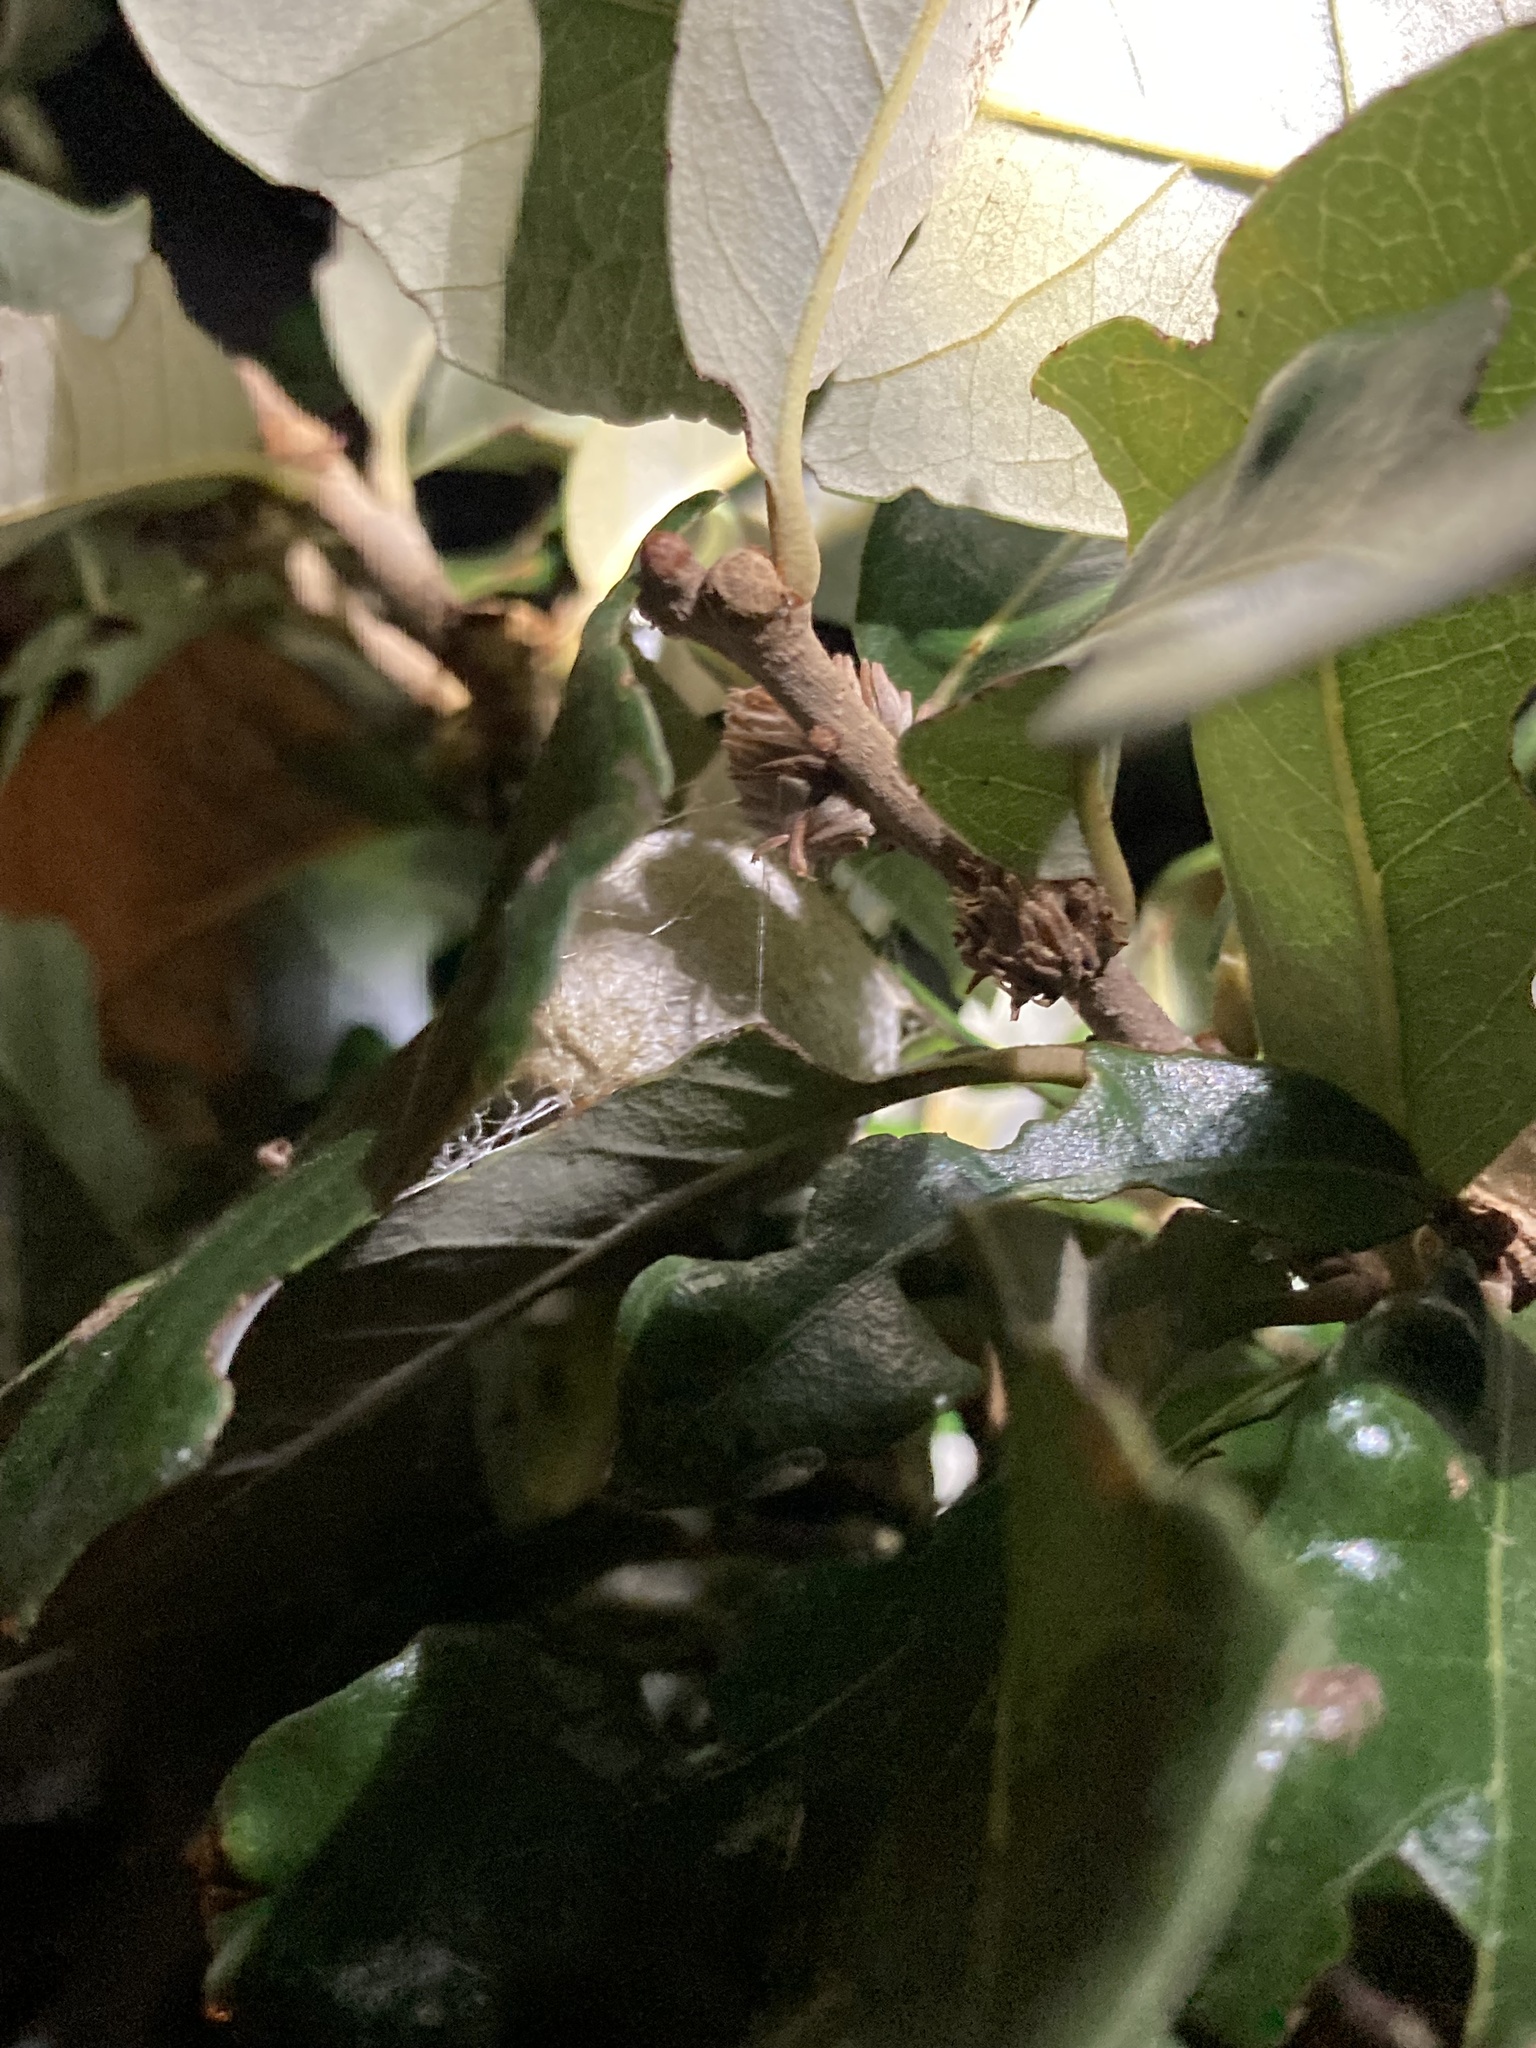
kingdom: Animalia
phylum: Arthropoda
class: Insecta
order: Lepidoptera
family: Saturniidae
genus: Antheraea
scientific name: Antheraea polyphemus
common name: Polyphemus moth
